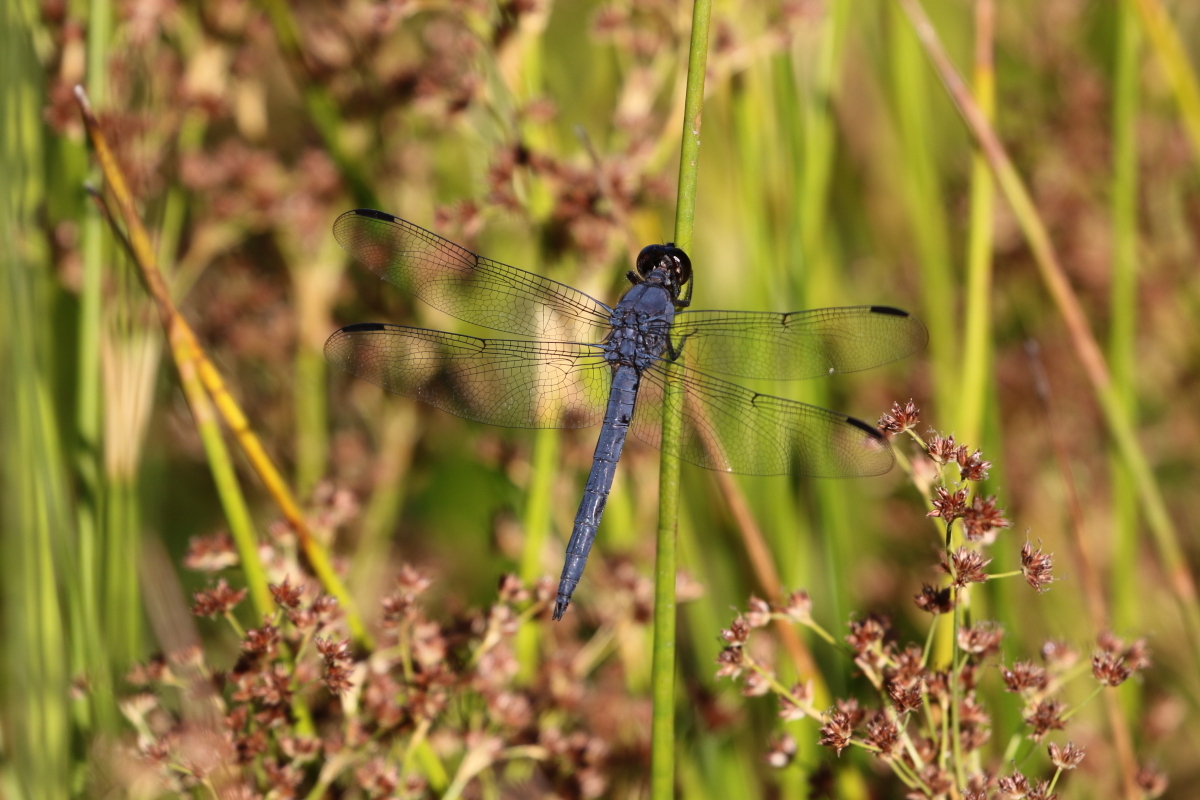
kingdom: Animalia
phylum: Arthropoda
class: Insecta
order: Odonata
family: Libellulidae
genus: Libellula
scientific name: Libellula incesta
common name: Slaty skimmer
